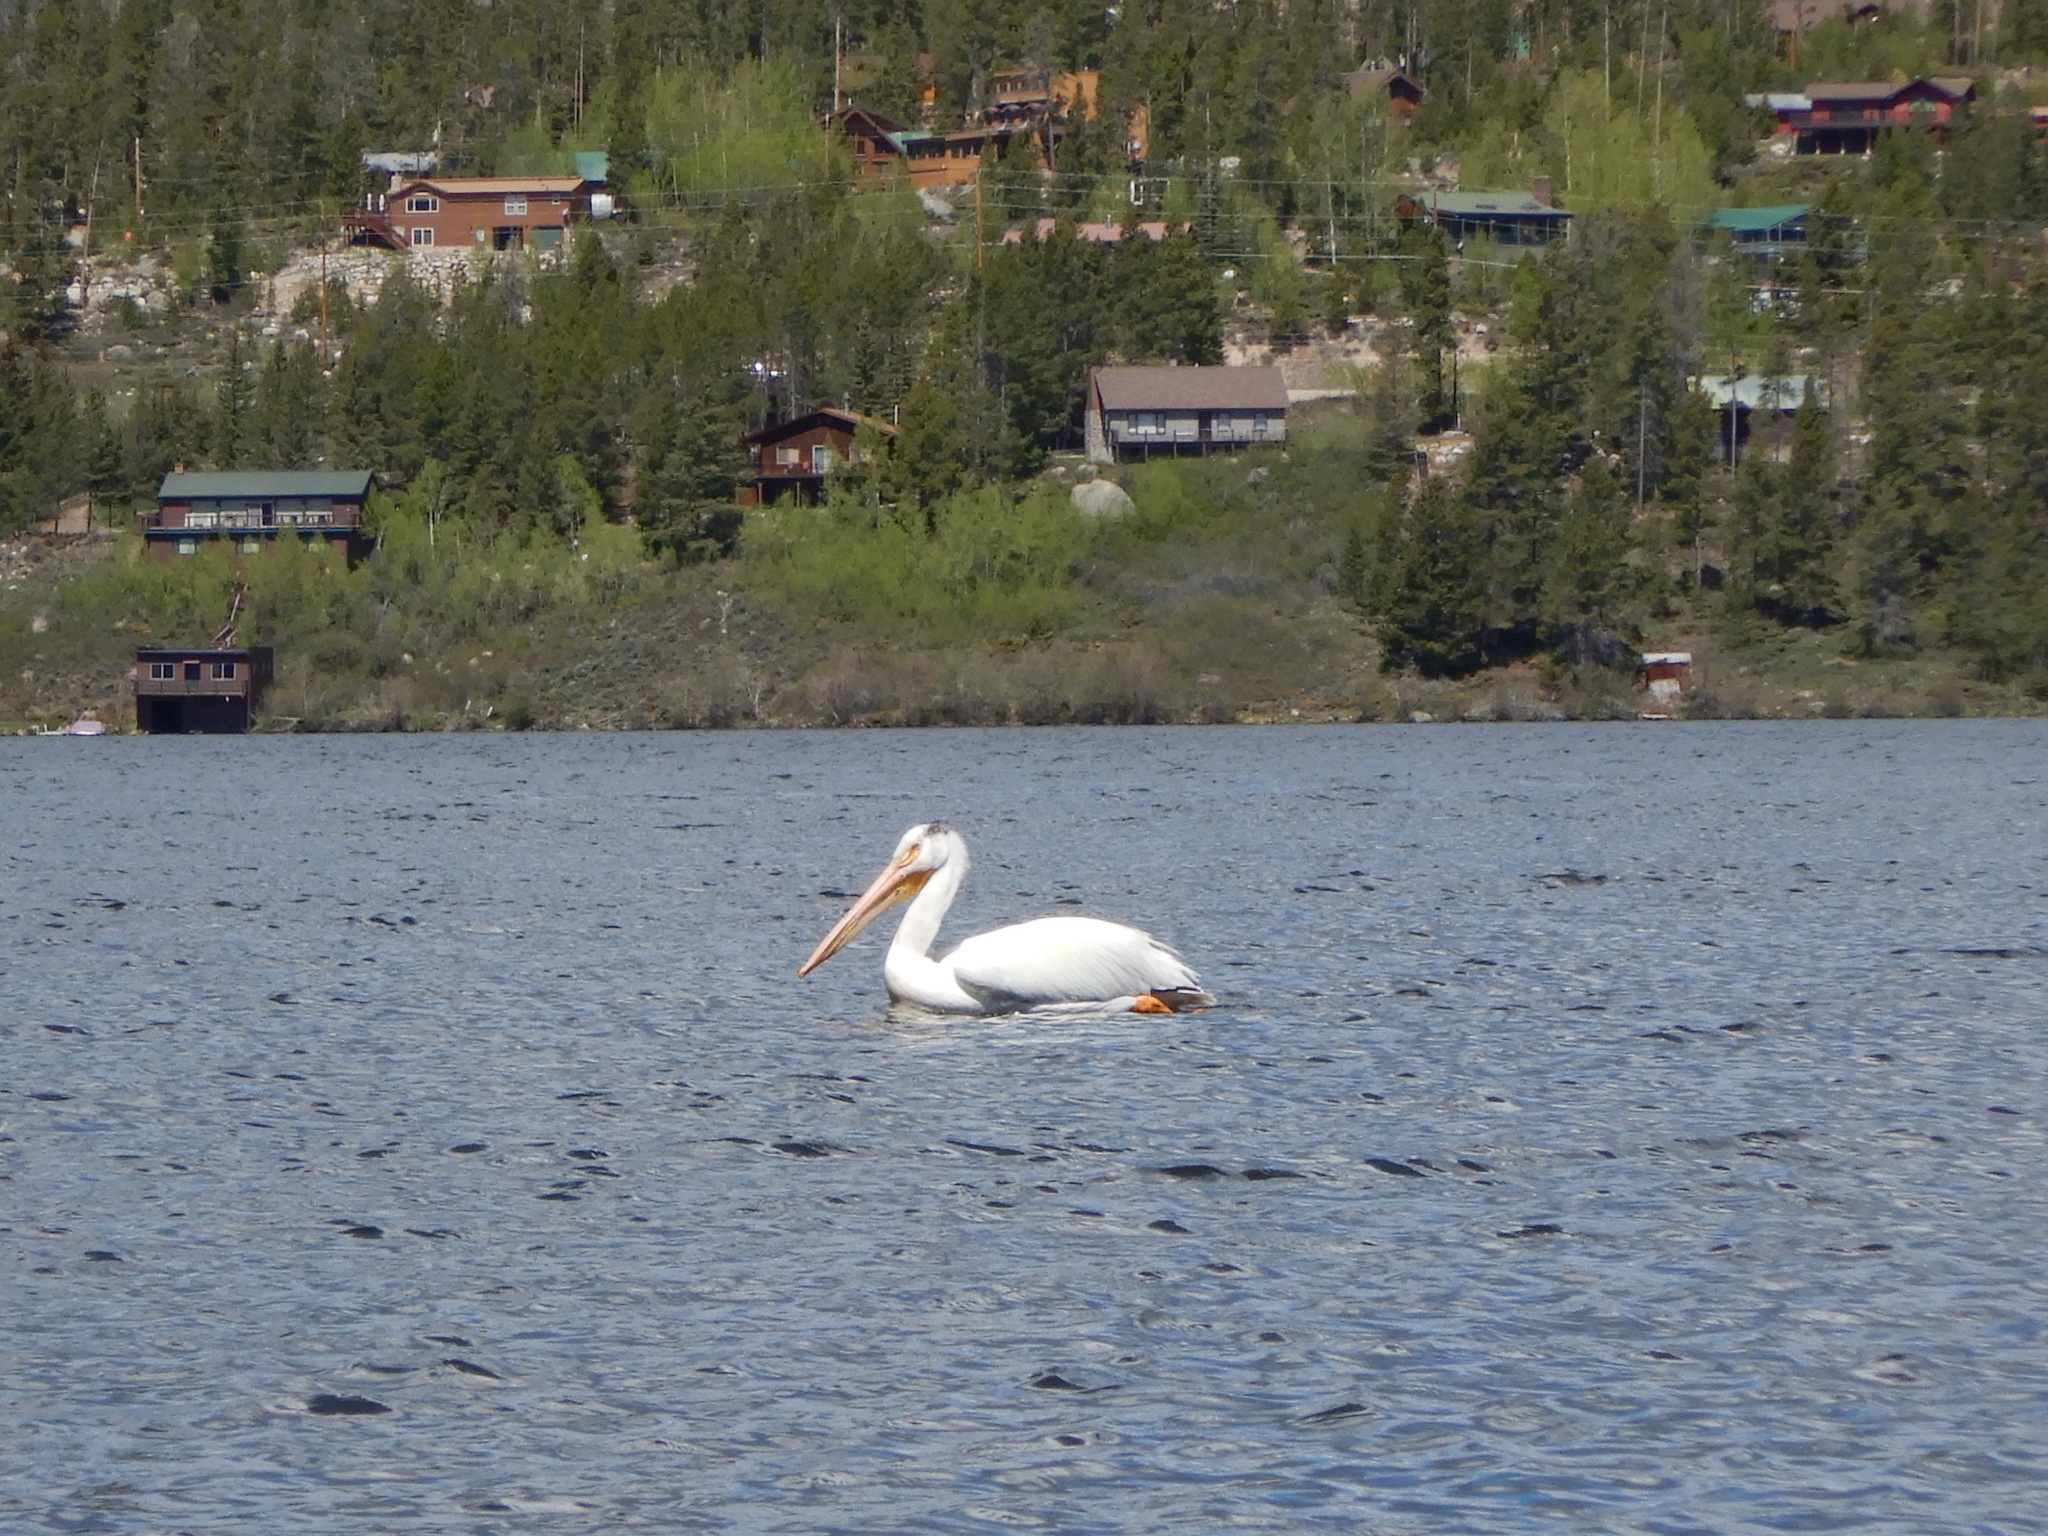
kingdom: Animalia
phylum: Chordata
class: Aves
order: Pelecaniformes
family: Pelecanidae
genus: Pelecanus
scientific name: Pelecanus erythrorhynchos
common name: American white pelican
